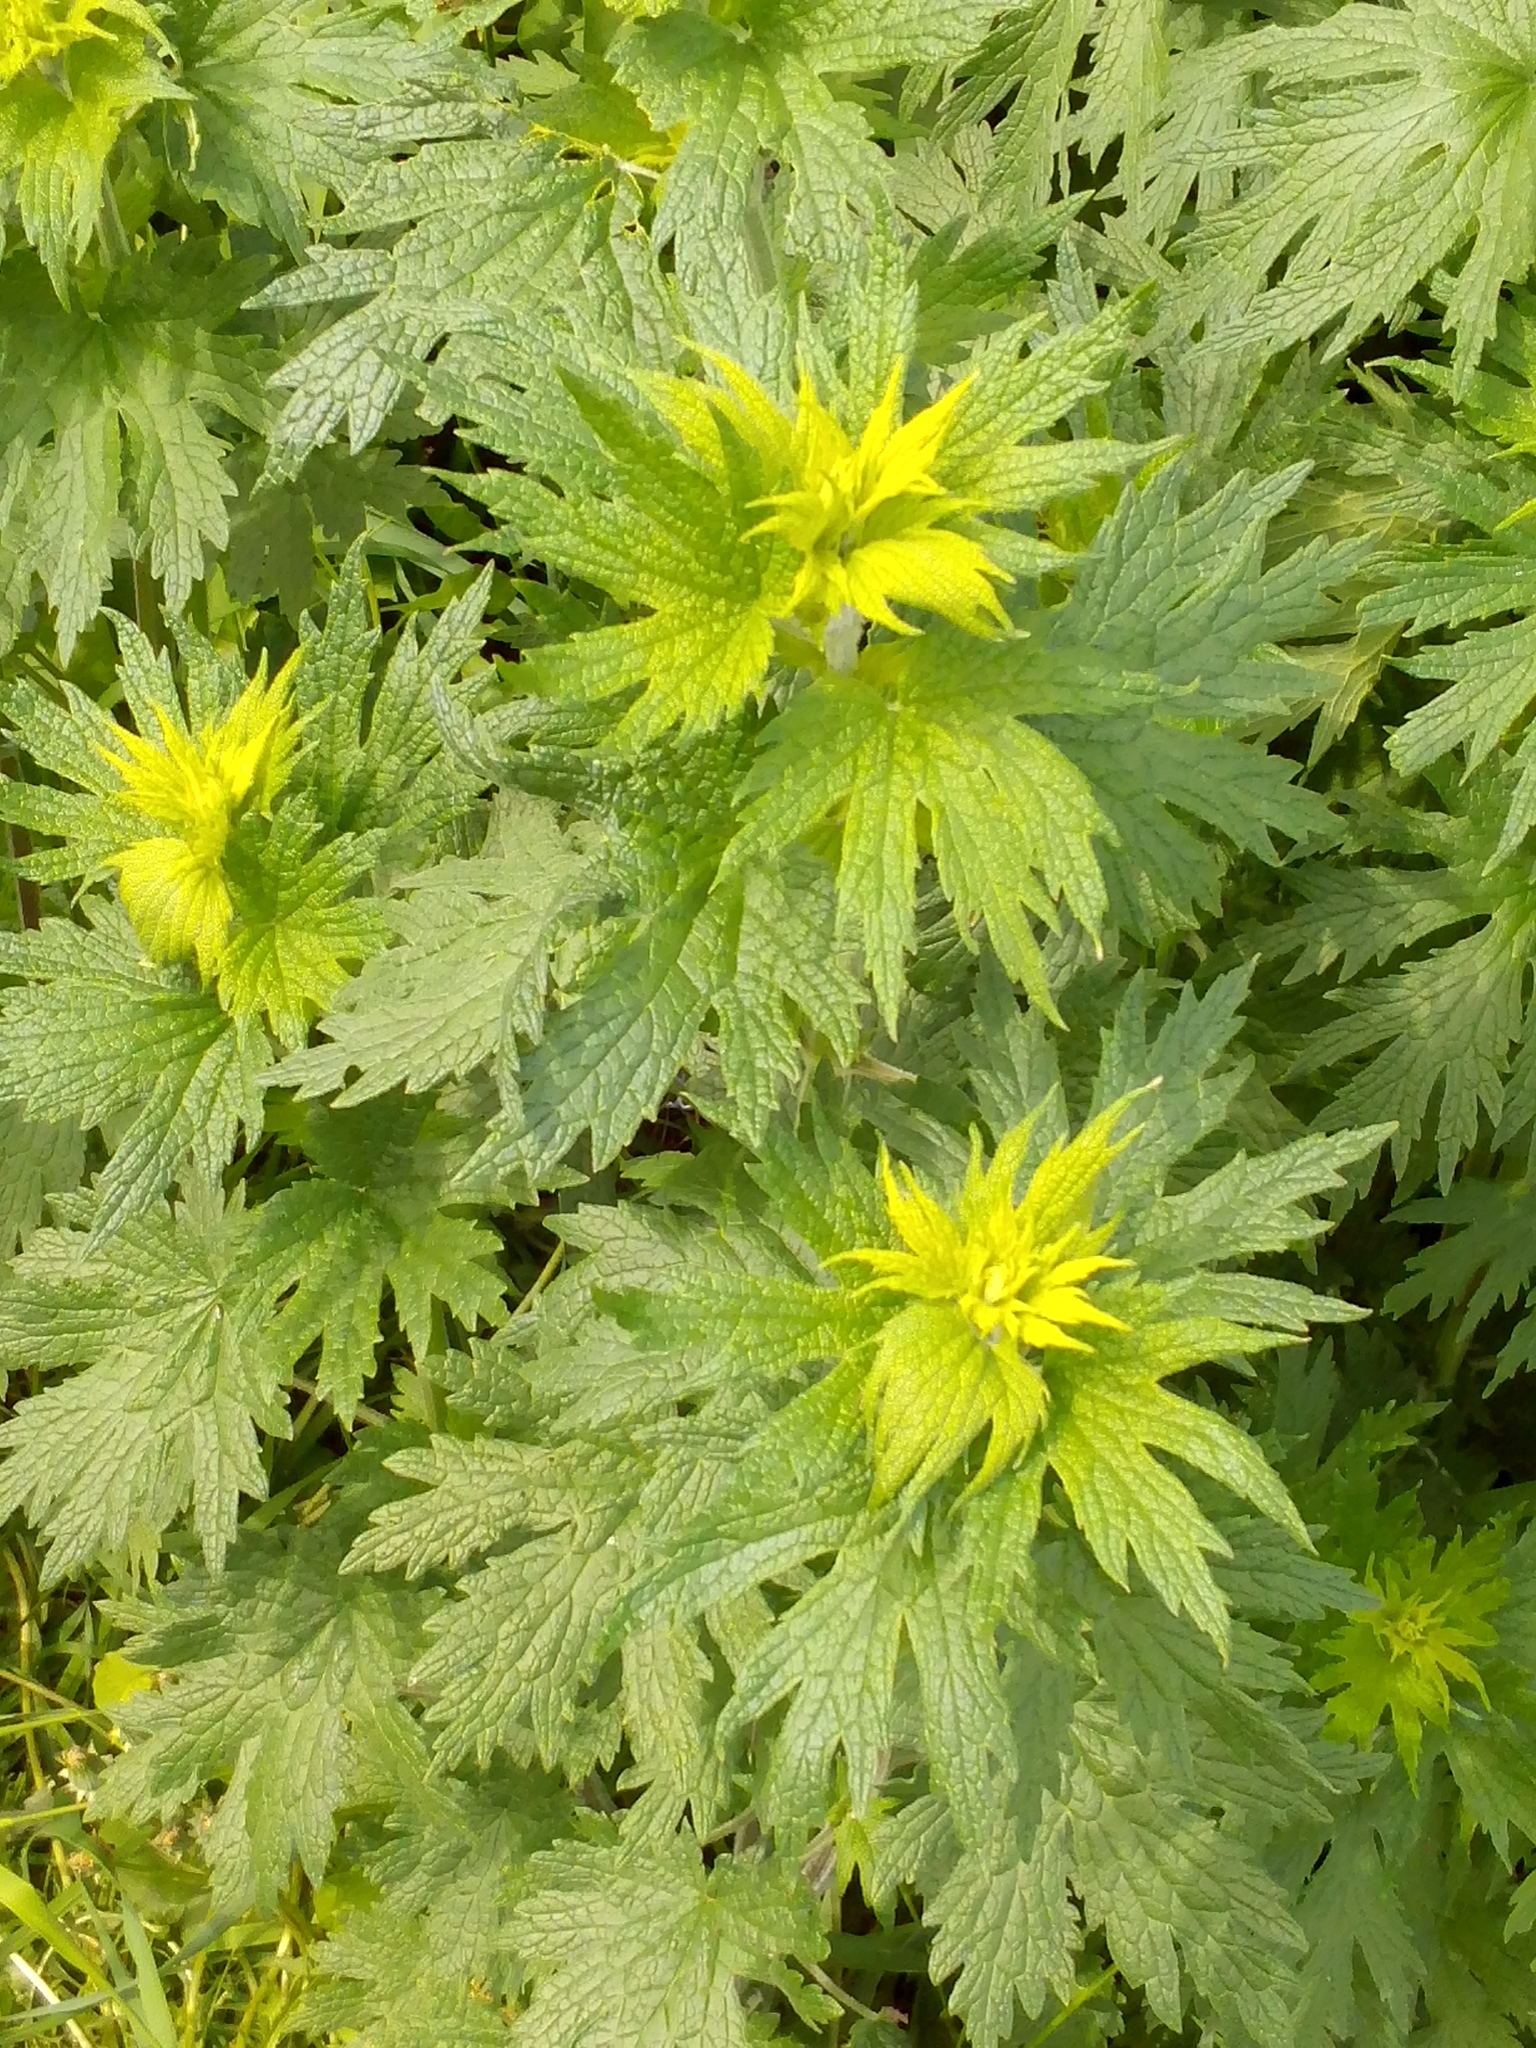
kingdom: Plantae
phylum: Tracheophyta
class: Magnoliopsida
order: Lamiales
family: Lamiaceae
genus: Leonurus
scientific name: Leonurus quinquelobatus
